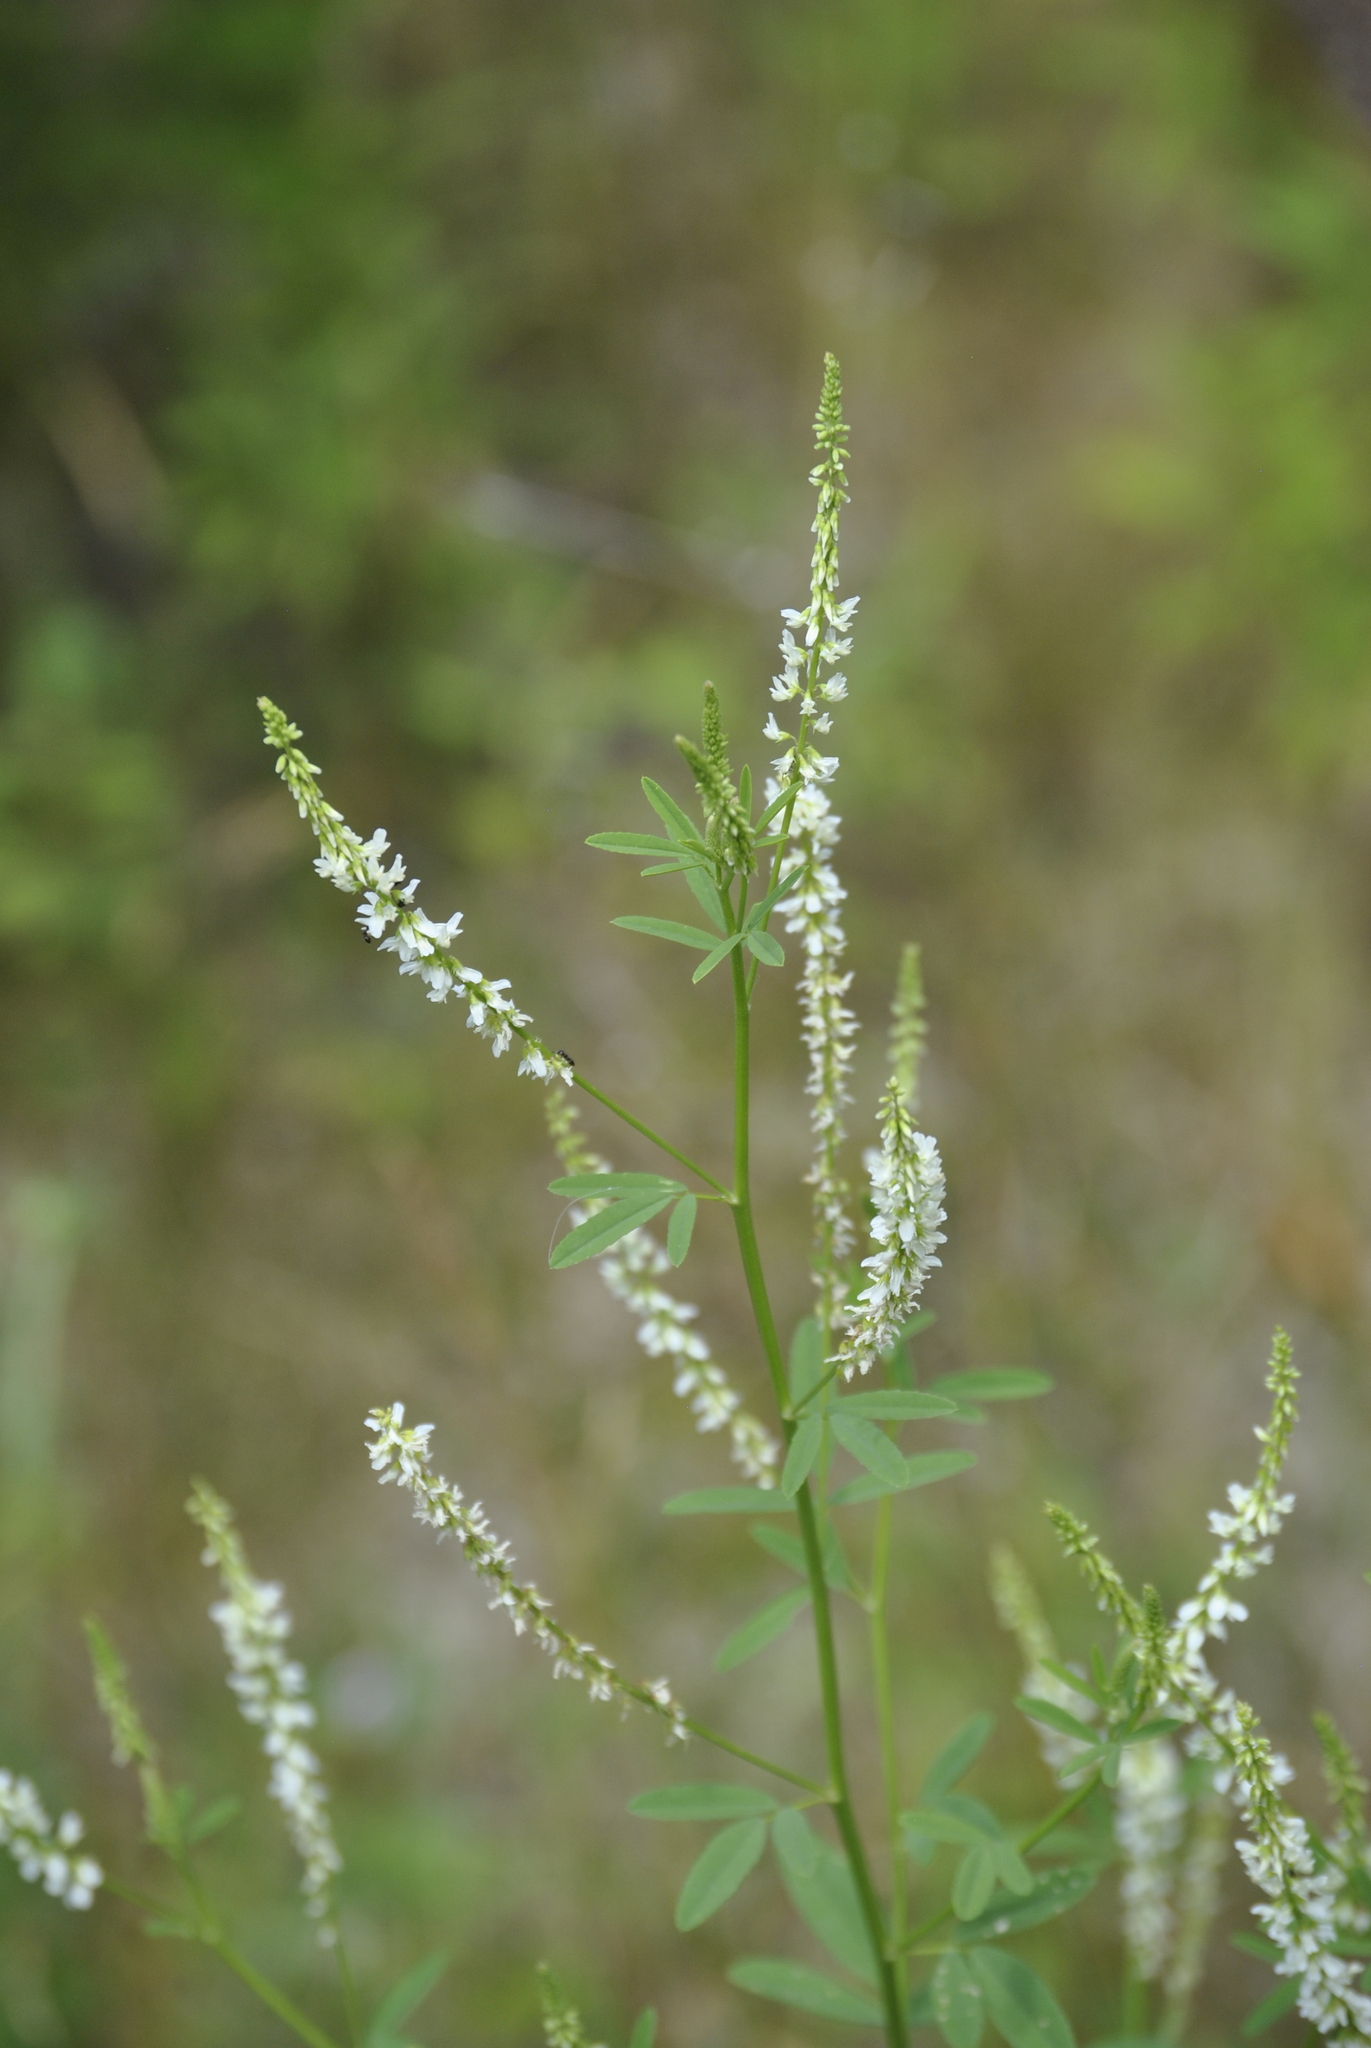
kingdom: Plantae
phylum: Tracheophyta
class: Magnoliopsida
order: Fabales
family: Fabaceae
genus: Melilotus
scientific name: Melilotus albus
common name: White melilot
